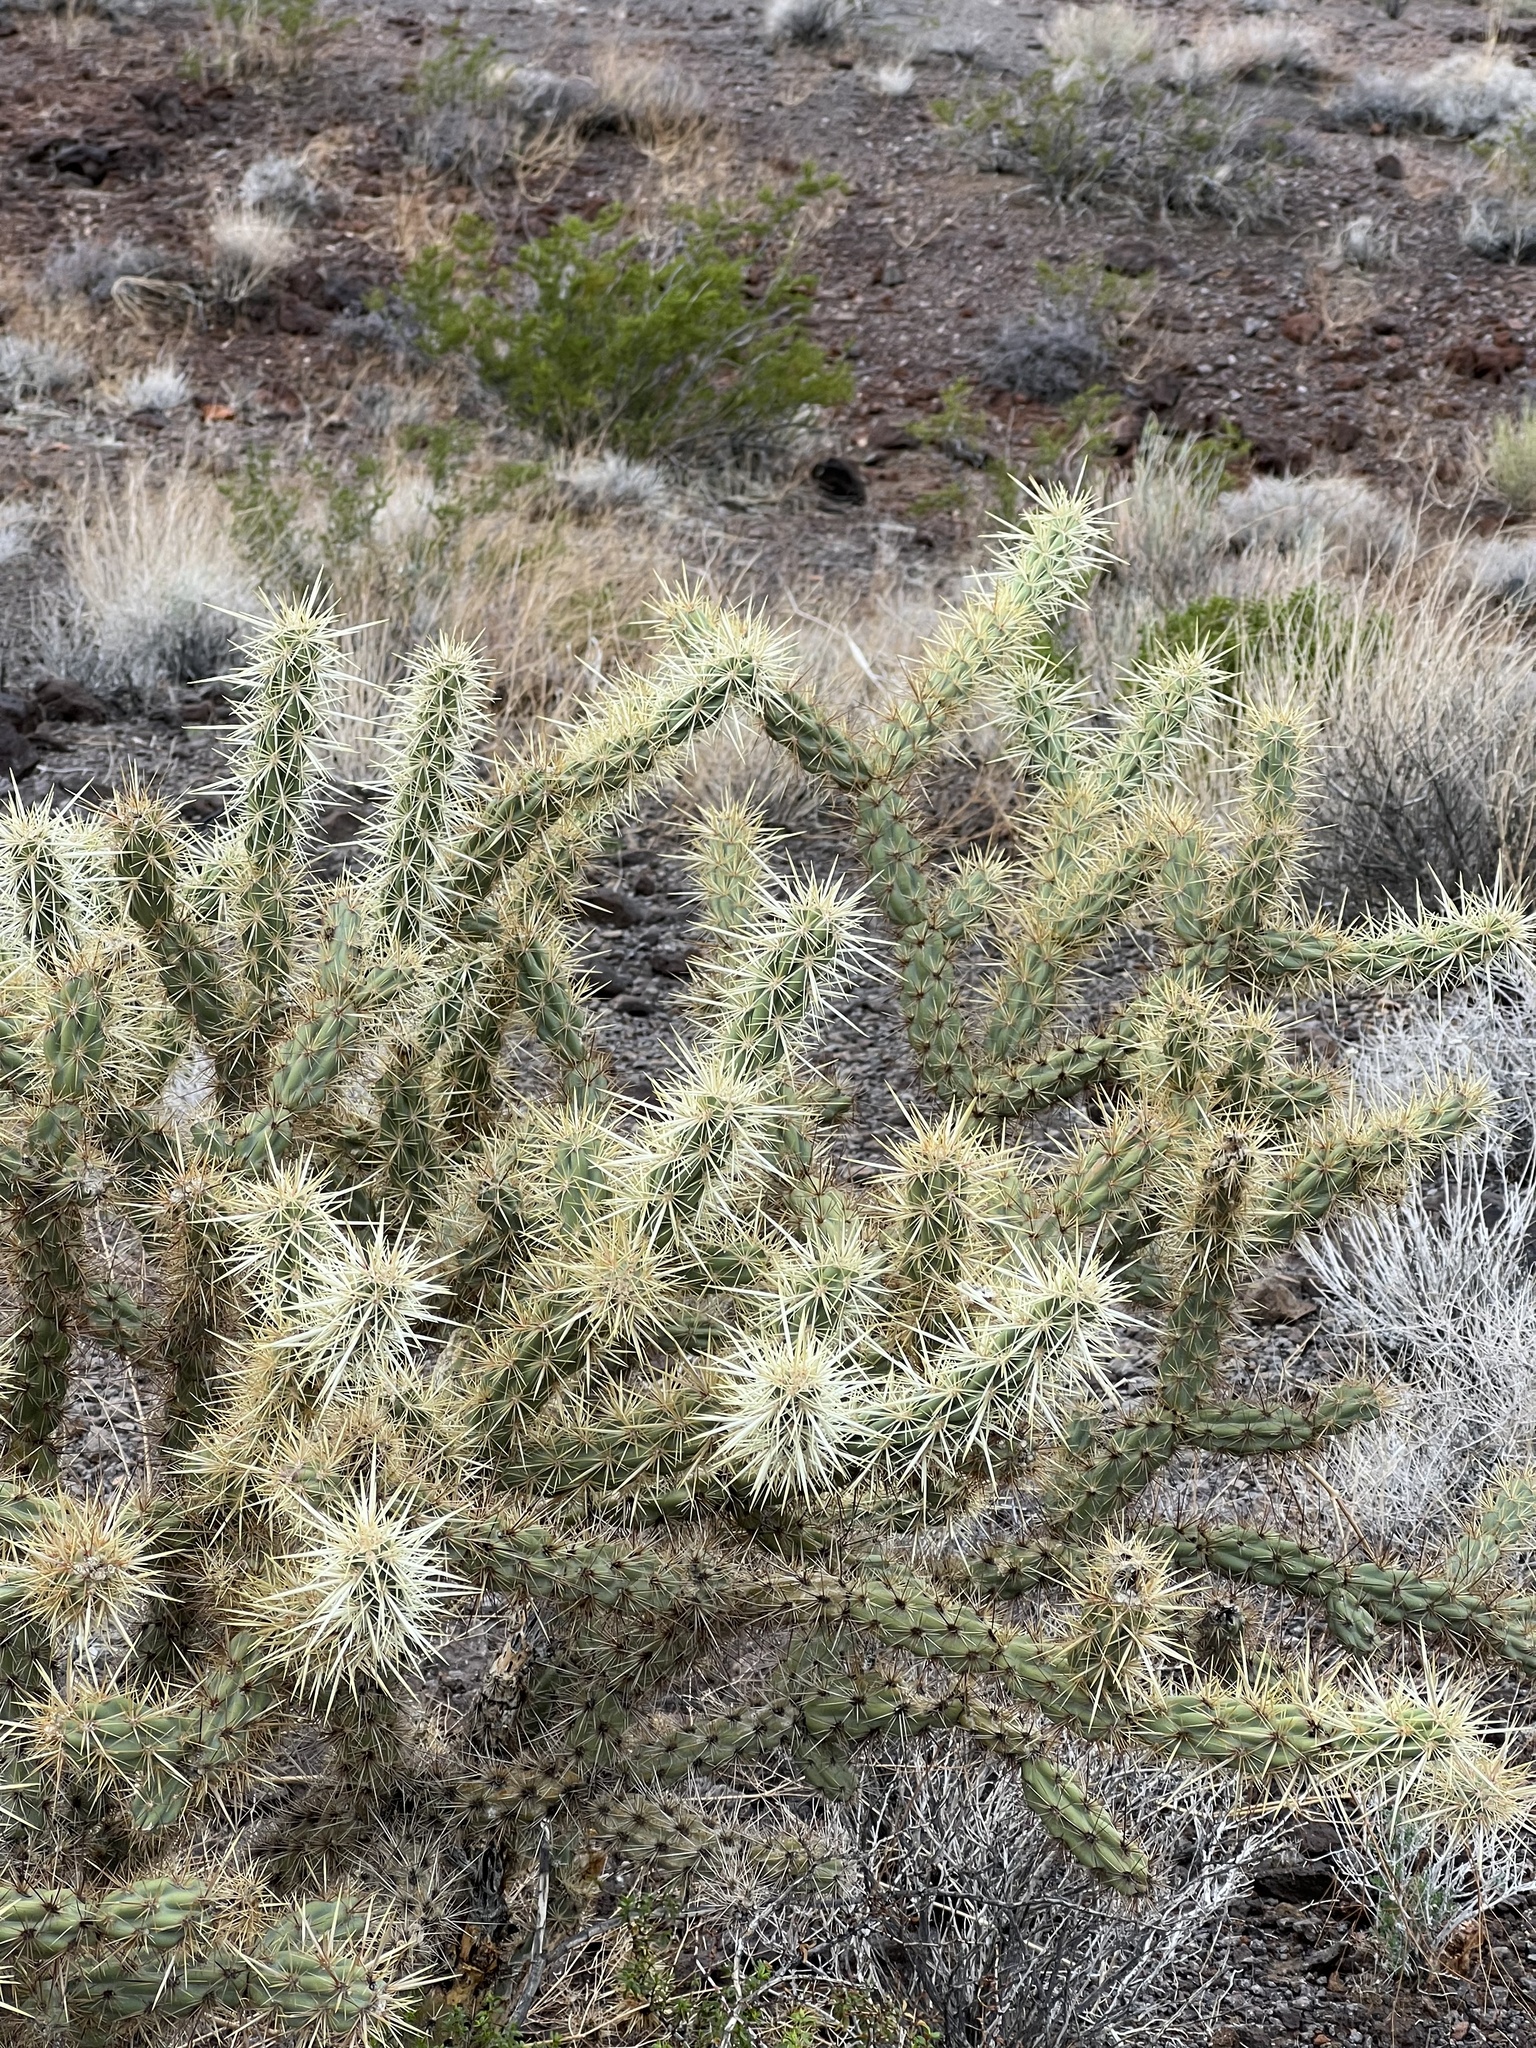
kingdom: Plantae
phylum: Tracheophyta
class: Magnoliopsida
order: Caryophyllales
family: Cactaceae
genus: Cylindropuntia
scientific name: Cylindropuntia acanthocarpa
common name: Buckhorn cholla
